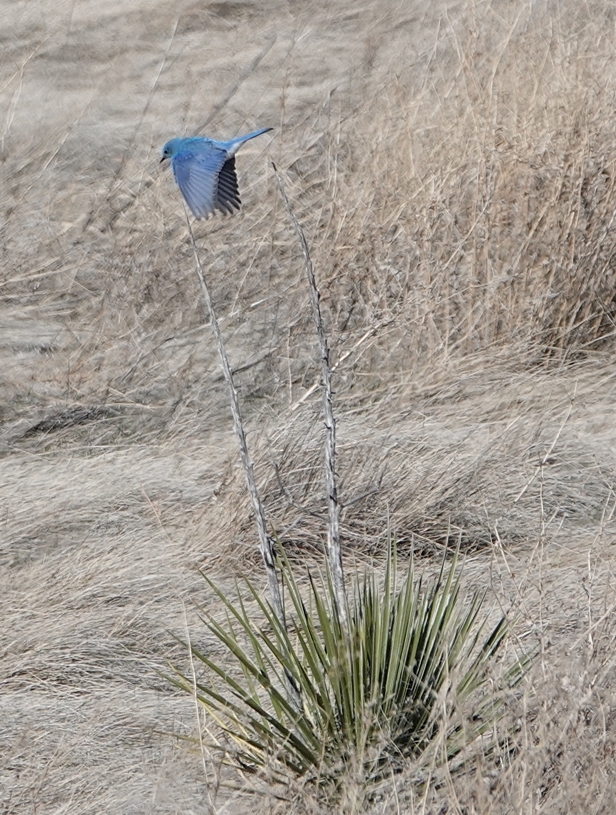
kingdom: Animalia
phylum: Chordata
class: Aves
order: Passeriformes
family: Turdidae
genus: Sialia
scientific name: Sialia currucoides
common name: Mountain bluebird
